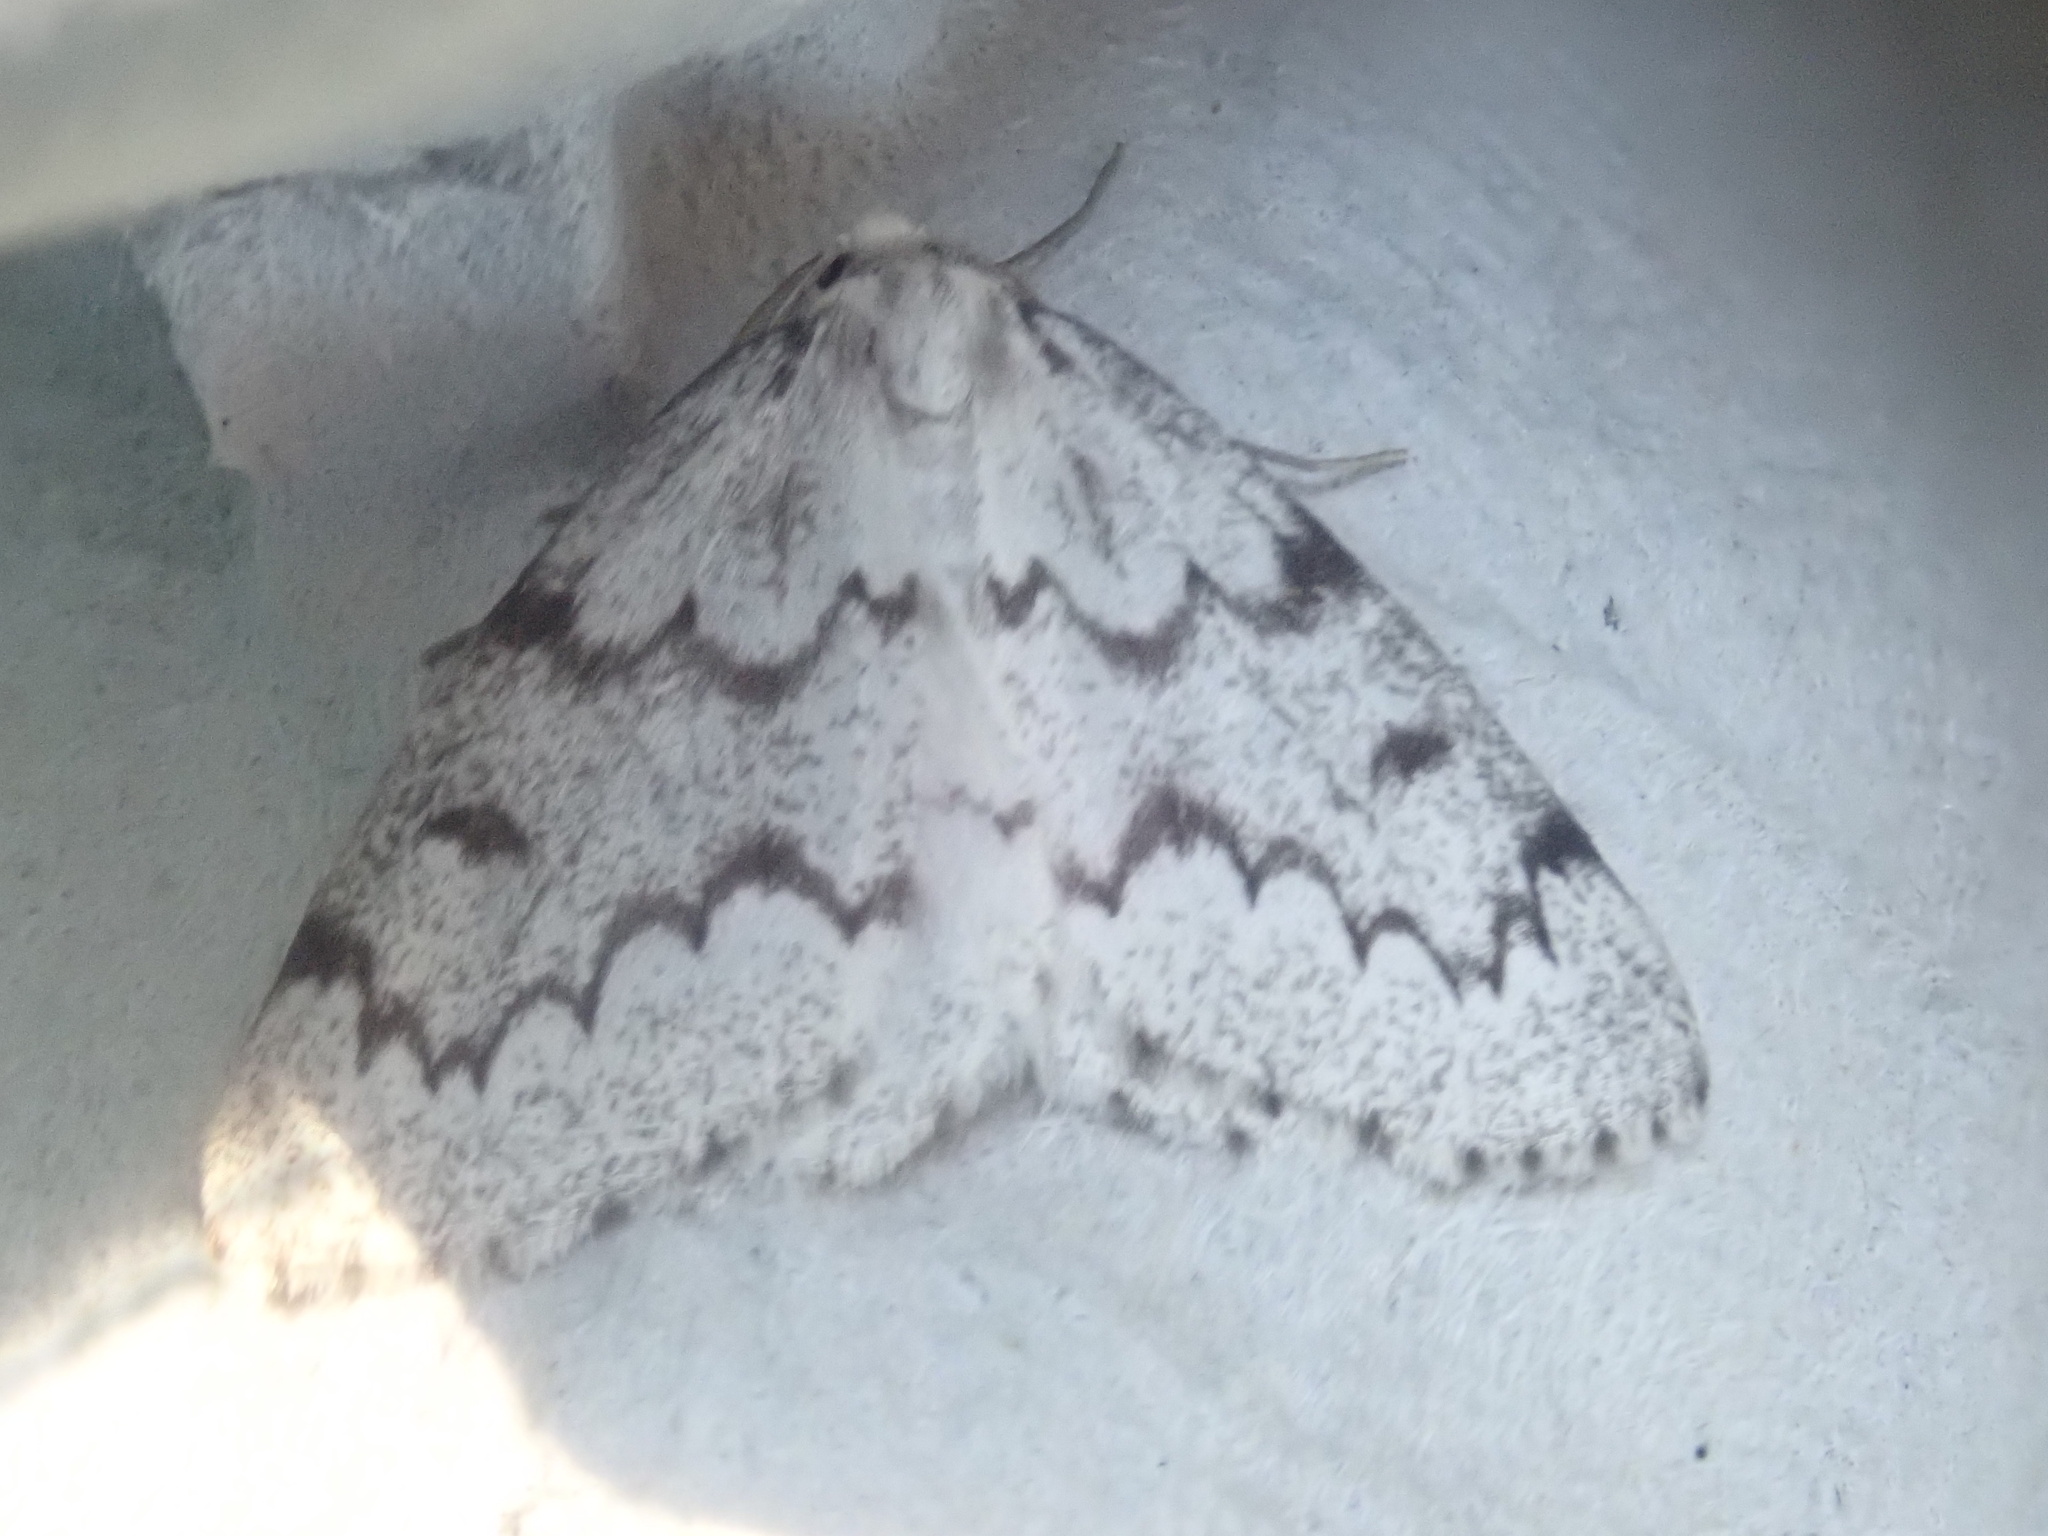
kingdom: Animalia
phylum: Arthropoda
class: Insecta
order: Lepidoptera
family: Geometridae
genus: Nepytia
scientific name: Nepytia canosaria
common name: False hemlock looper
